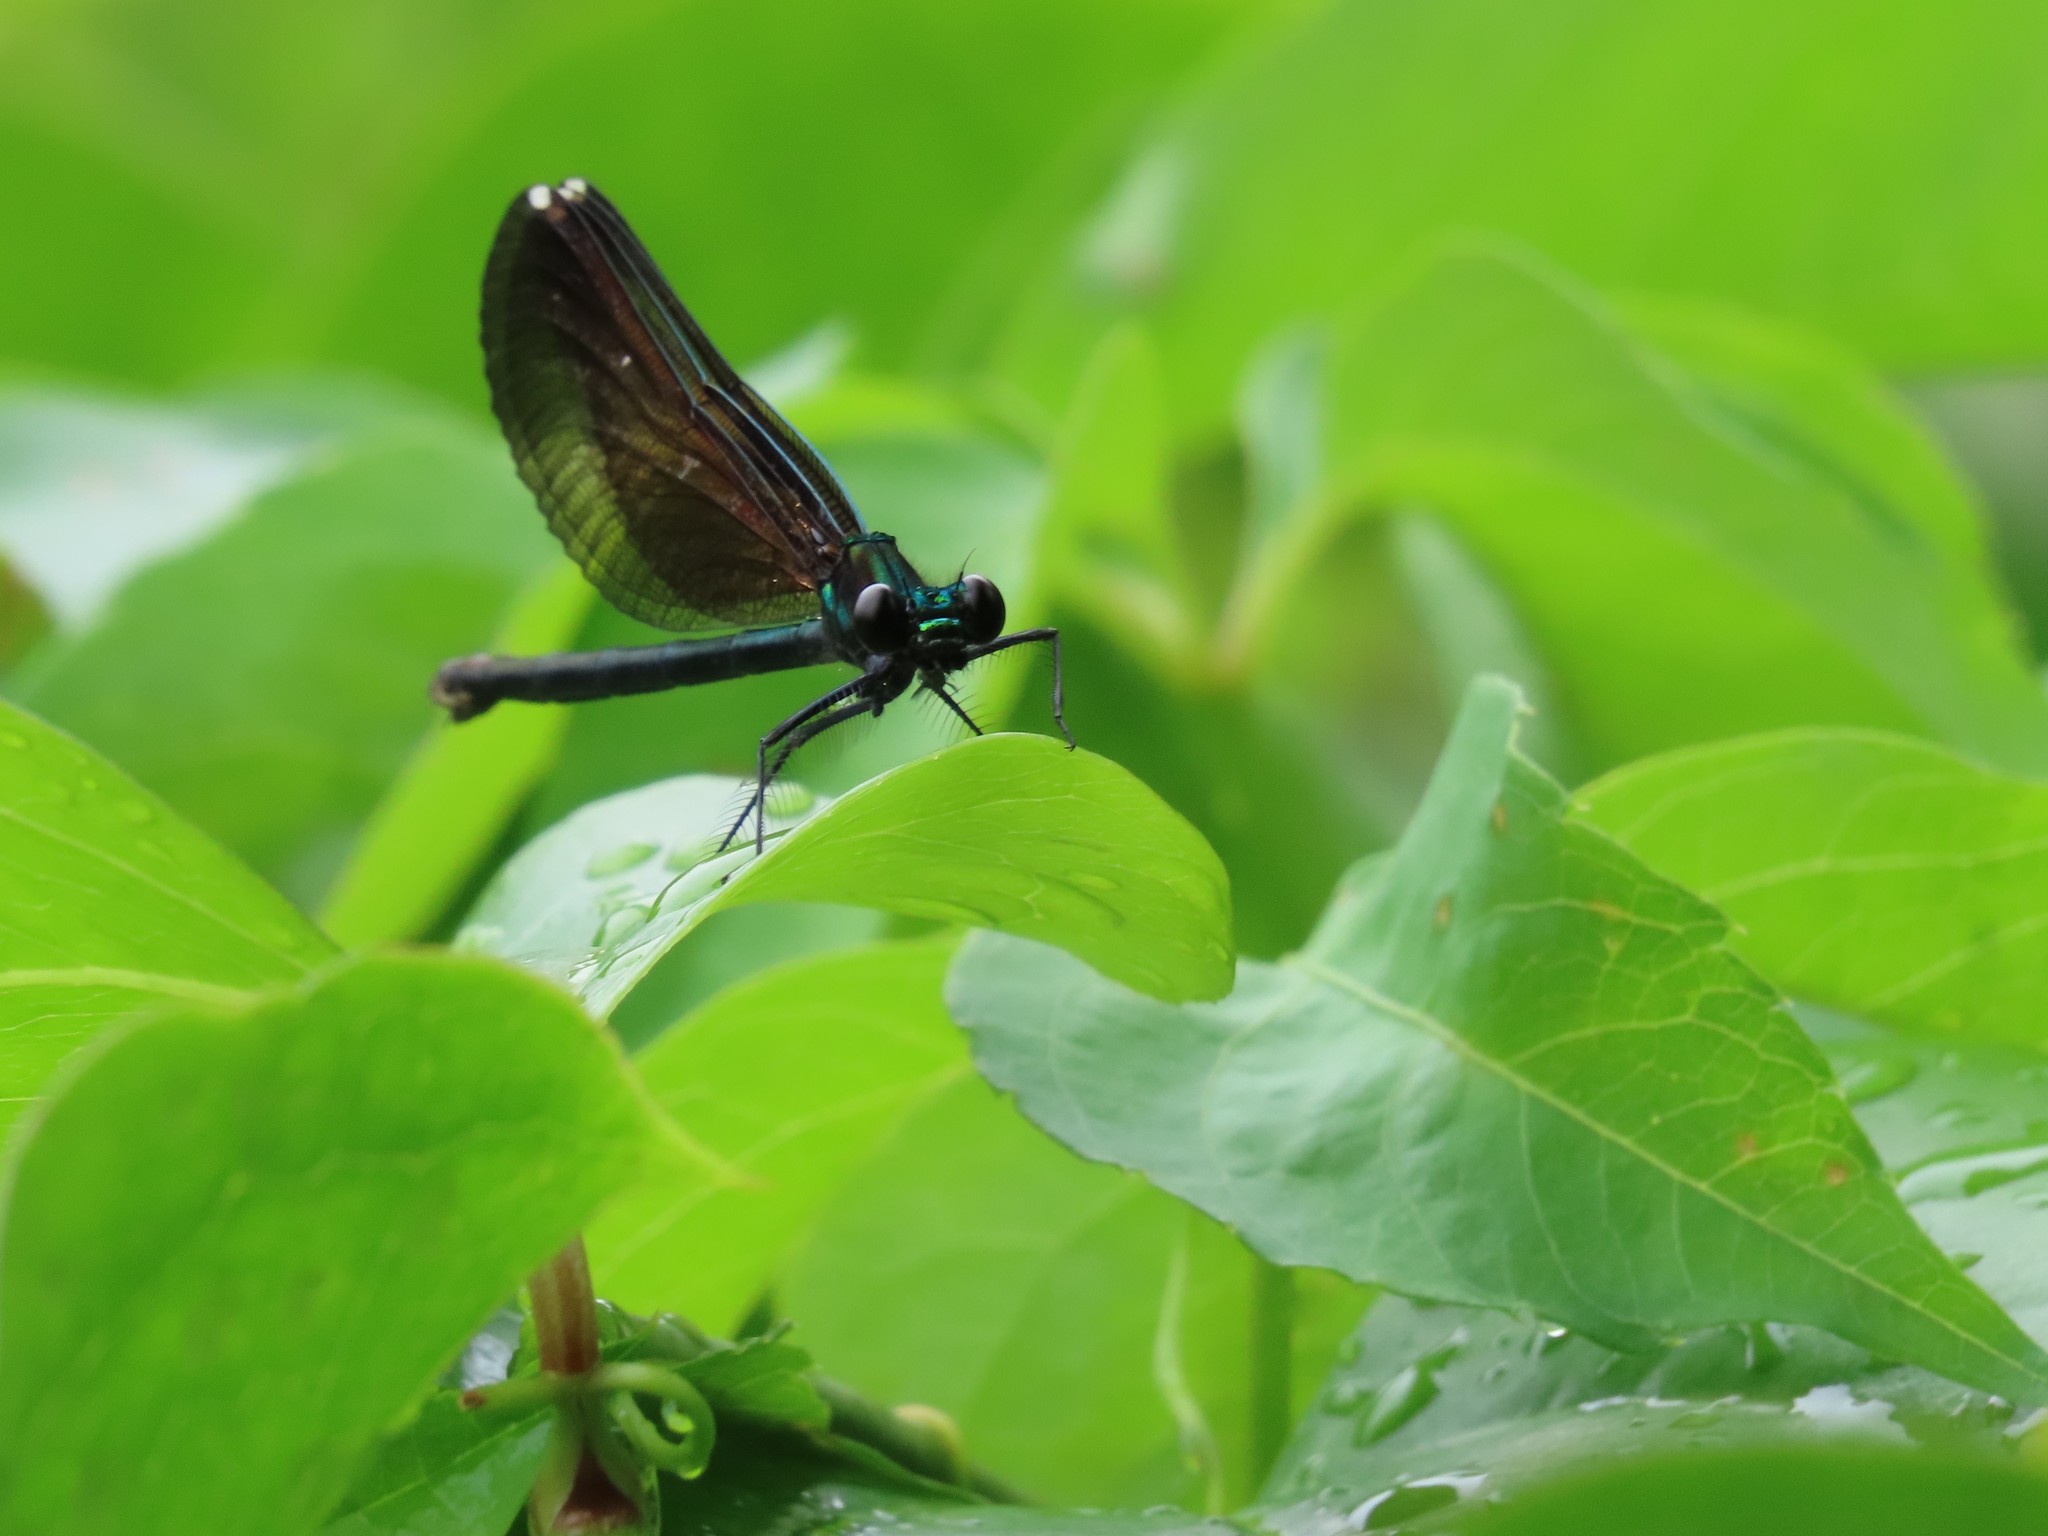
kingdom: Animalia
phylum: Arthropoda
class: Insecta
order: Odonata
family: Calopterygidae
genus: Calopteryx
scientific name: Calopteryx maculata
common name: Ebony jewelwing
